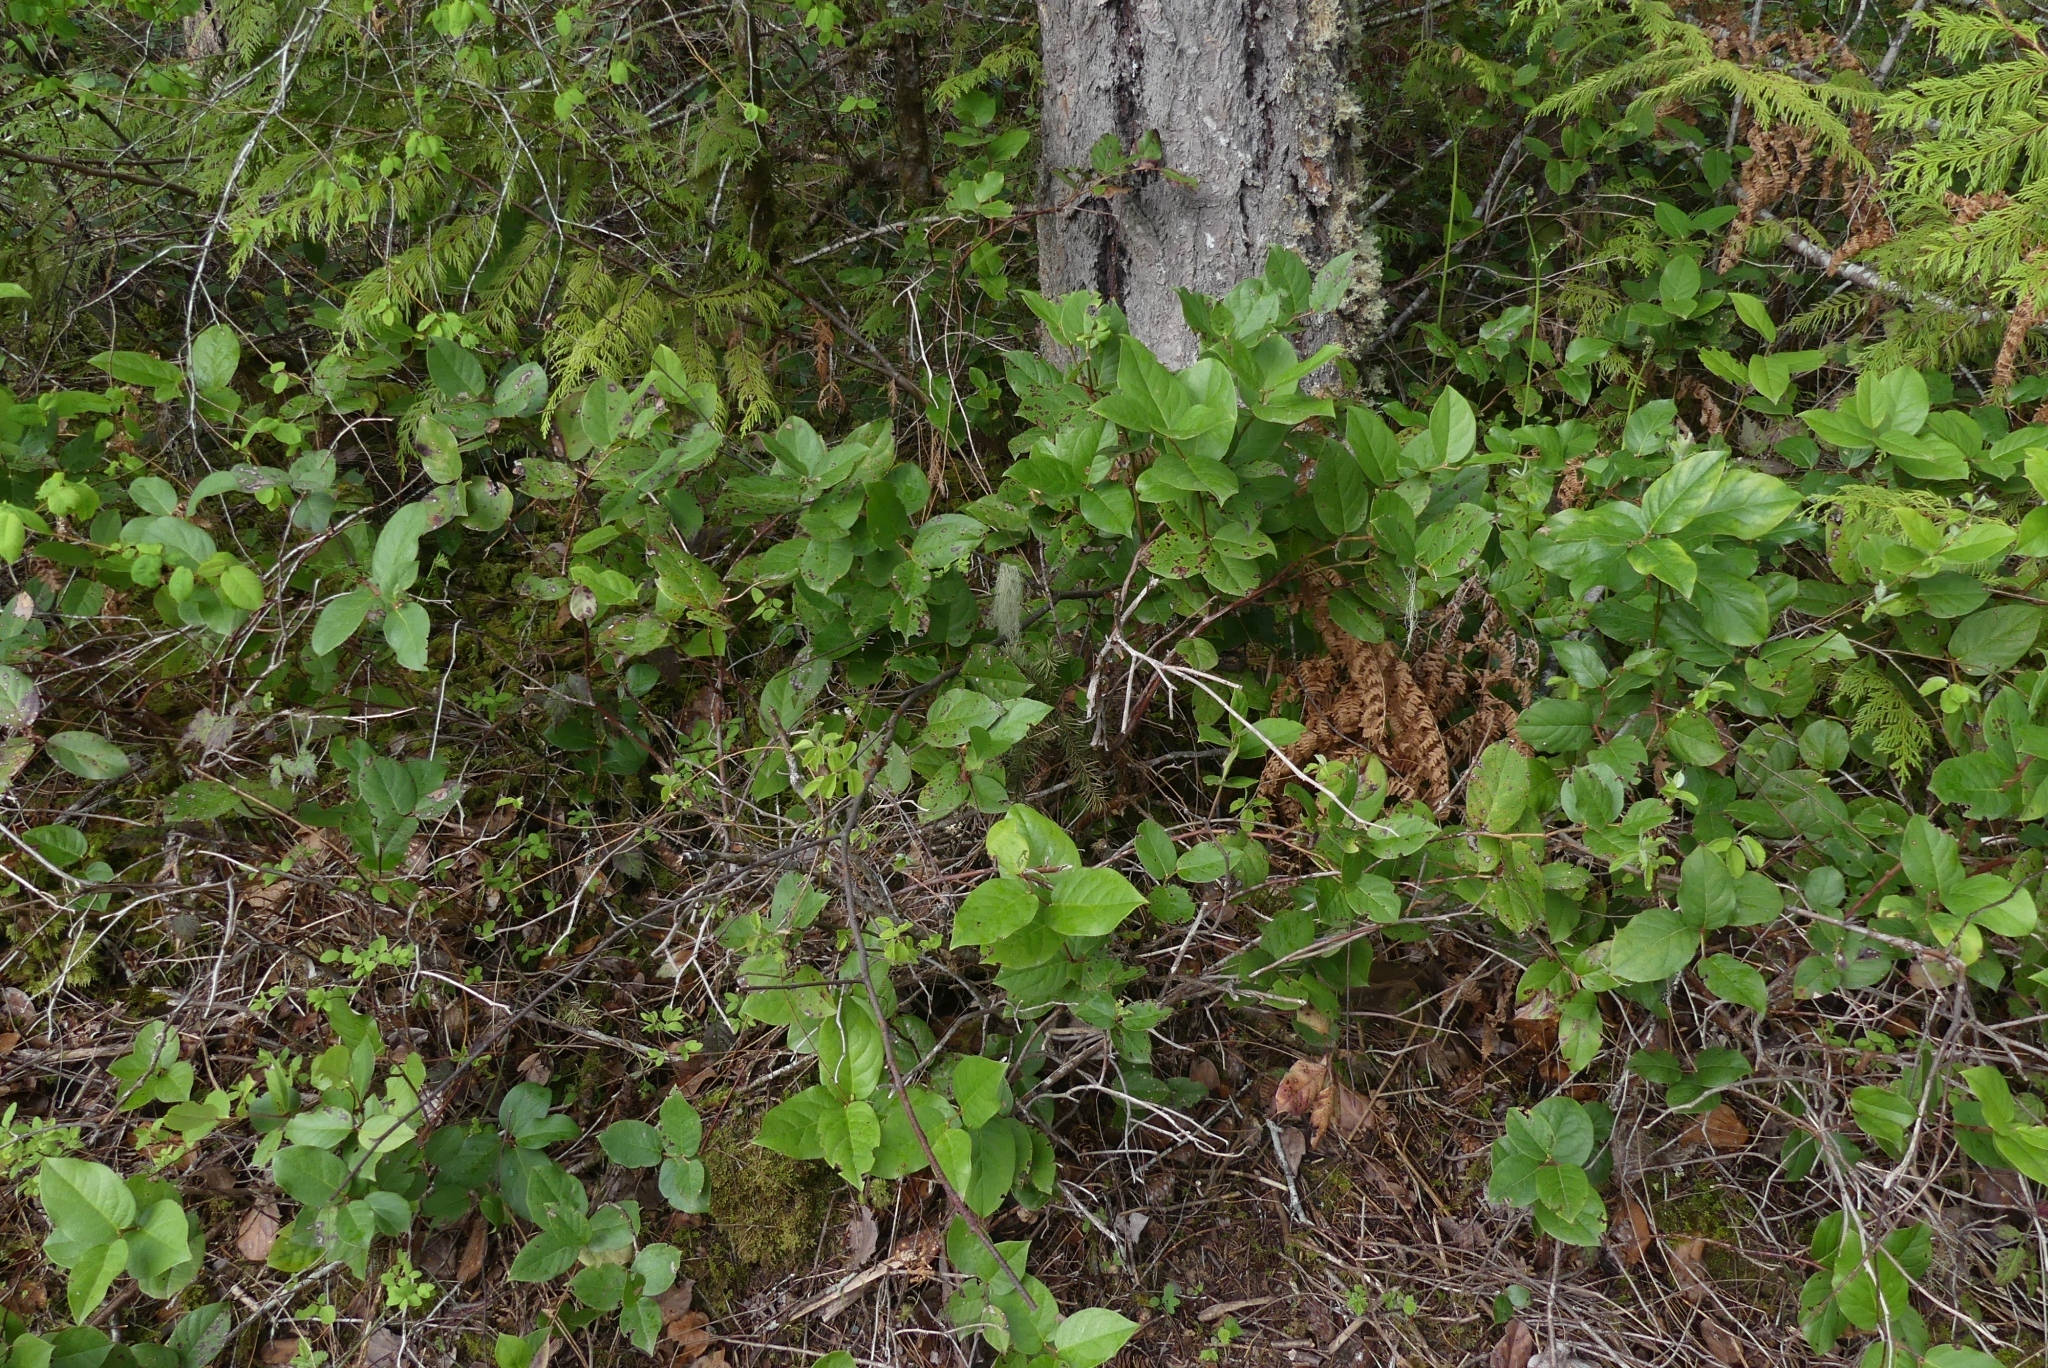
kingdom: Plantae
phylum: Tracheophyta
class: Magnoliopsida
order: Ericales
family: Ericaceae
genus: Gaultheria
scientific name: Gaultheria shallon
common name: Shallon
